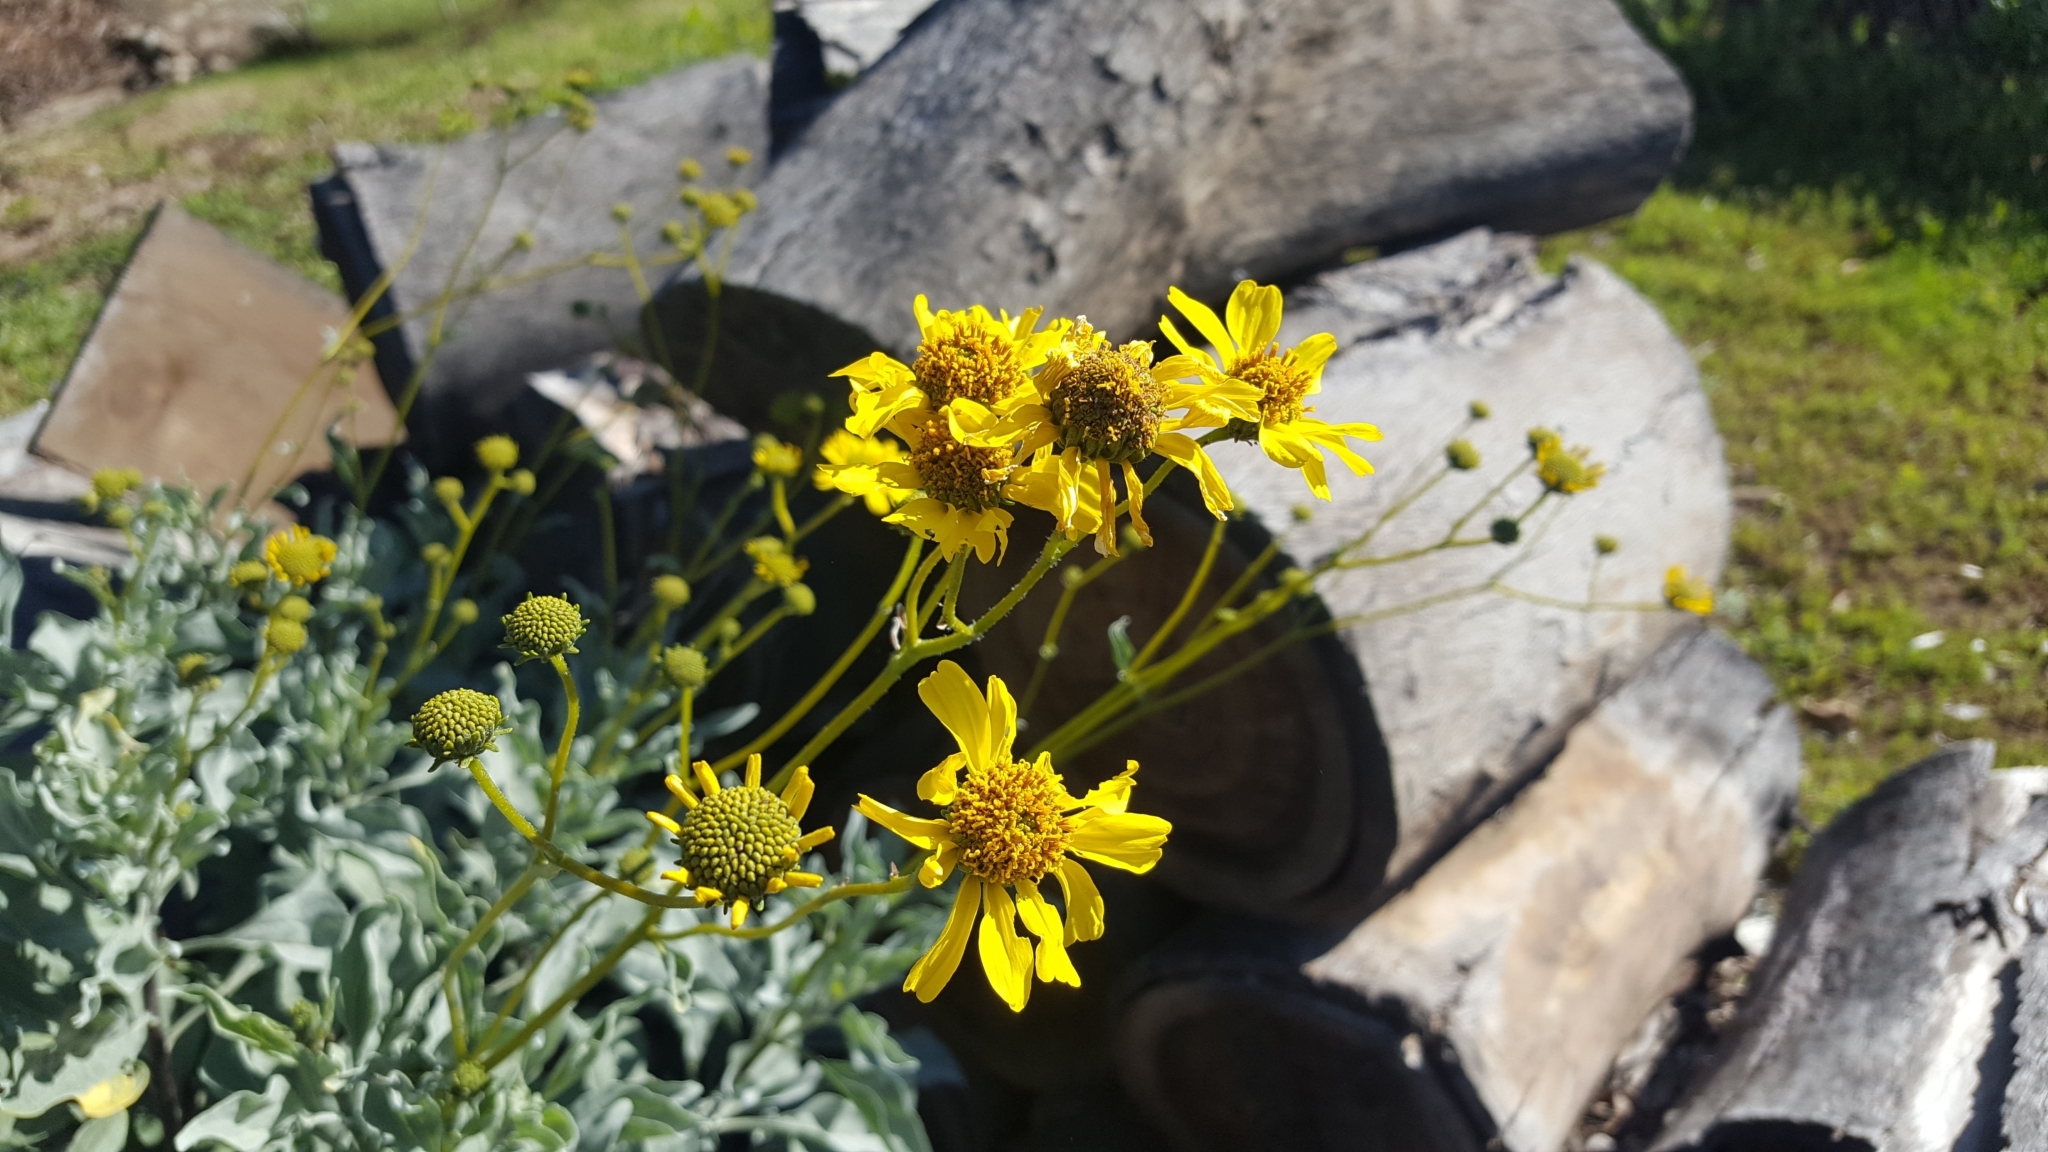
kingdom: Plantae
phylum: Tracheophyta
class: Magnoliopsida
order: Asterales
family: Asteraceae
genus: Encelia
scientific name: Encelia farinosa
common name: Brittlebush
